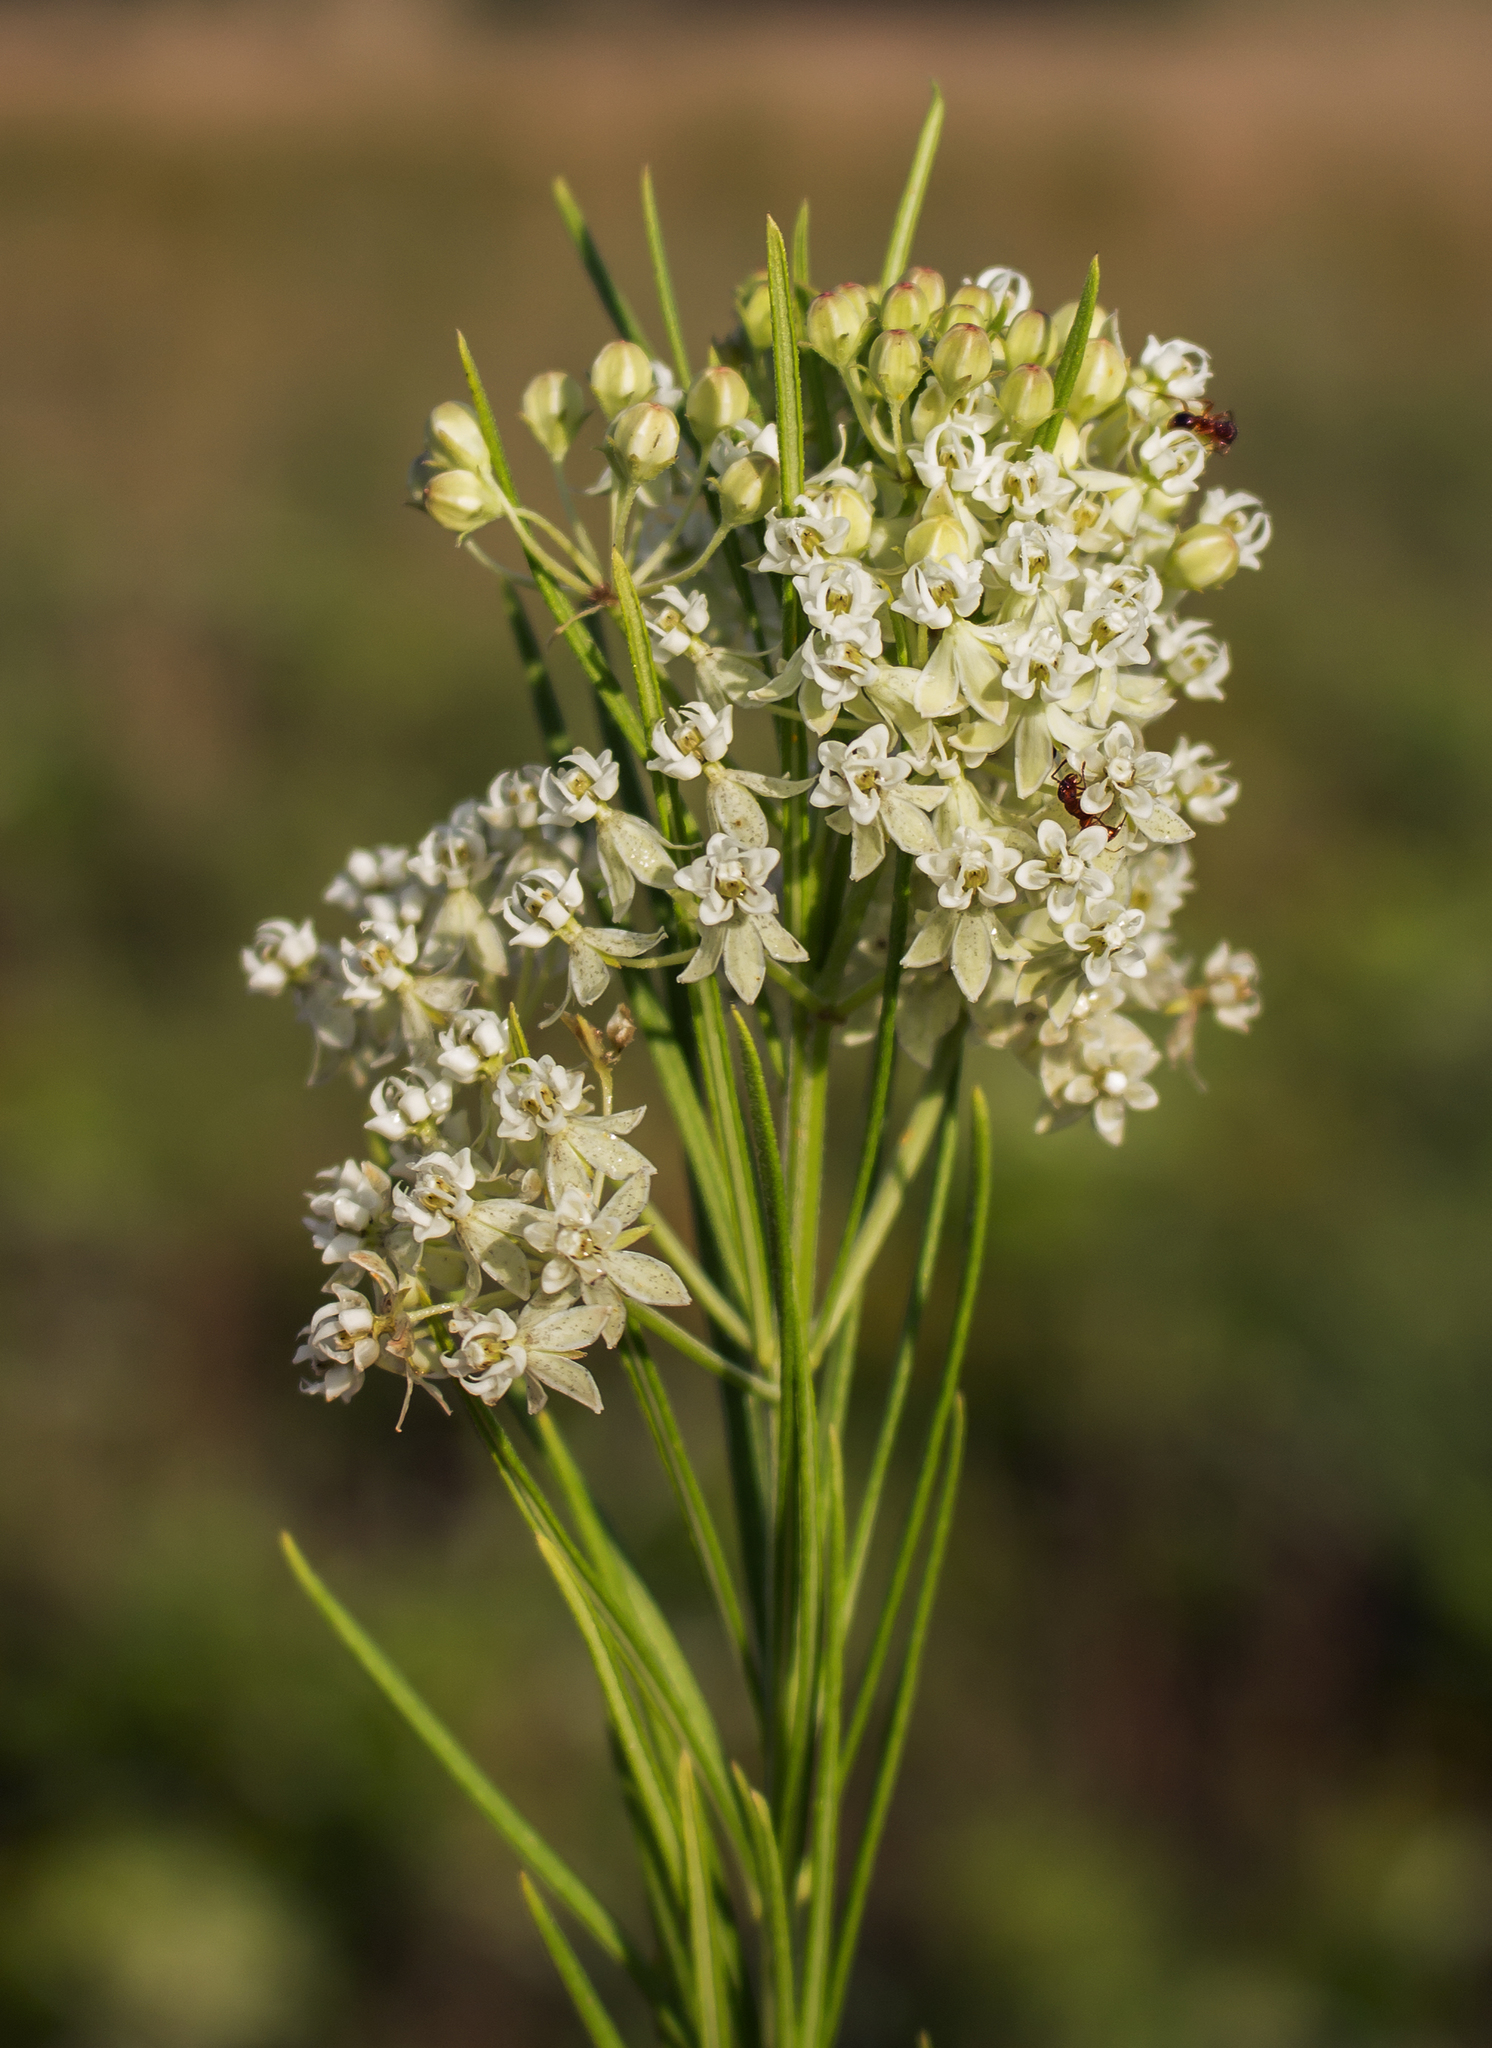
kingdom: Plantae
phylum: Tracheophyta
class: Magnoliopsida
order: Gentianales
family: Apocynaceae
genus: Asclepias
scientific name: Asclepias verticillata
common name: Eastern whorled milkweed
